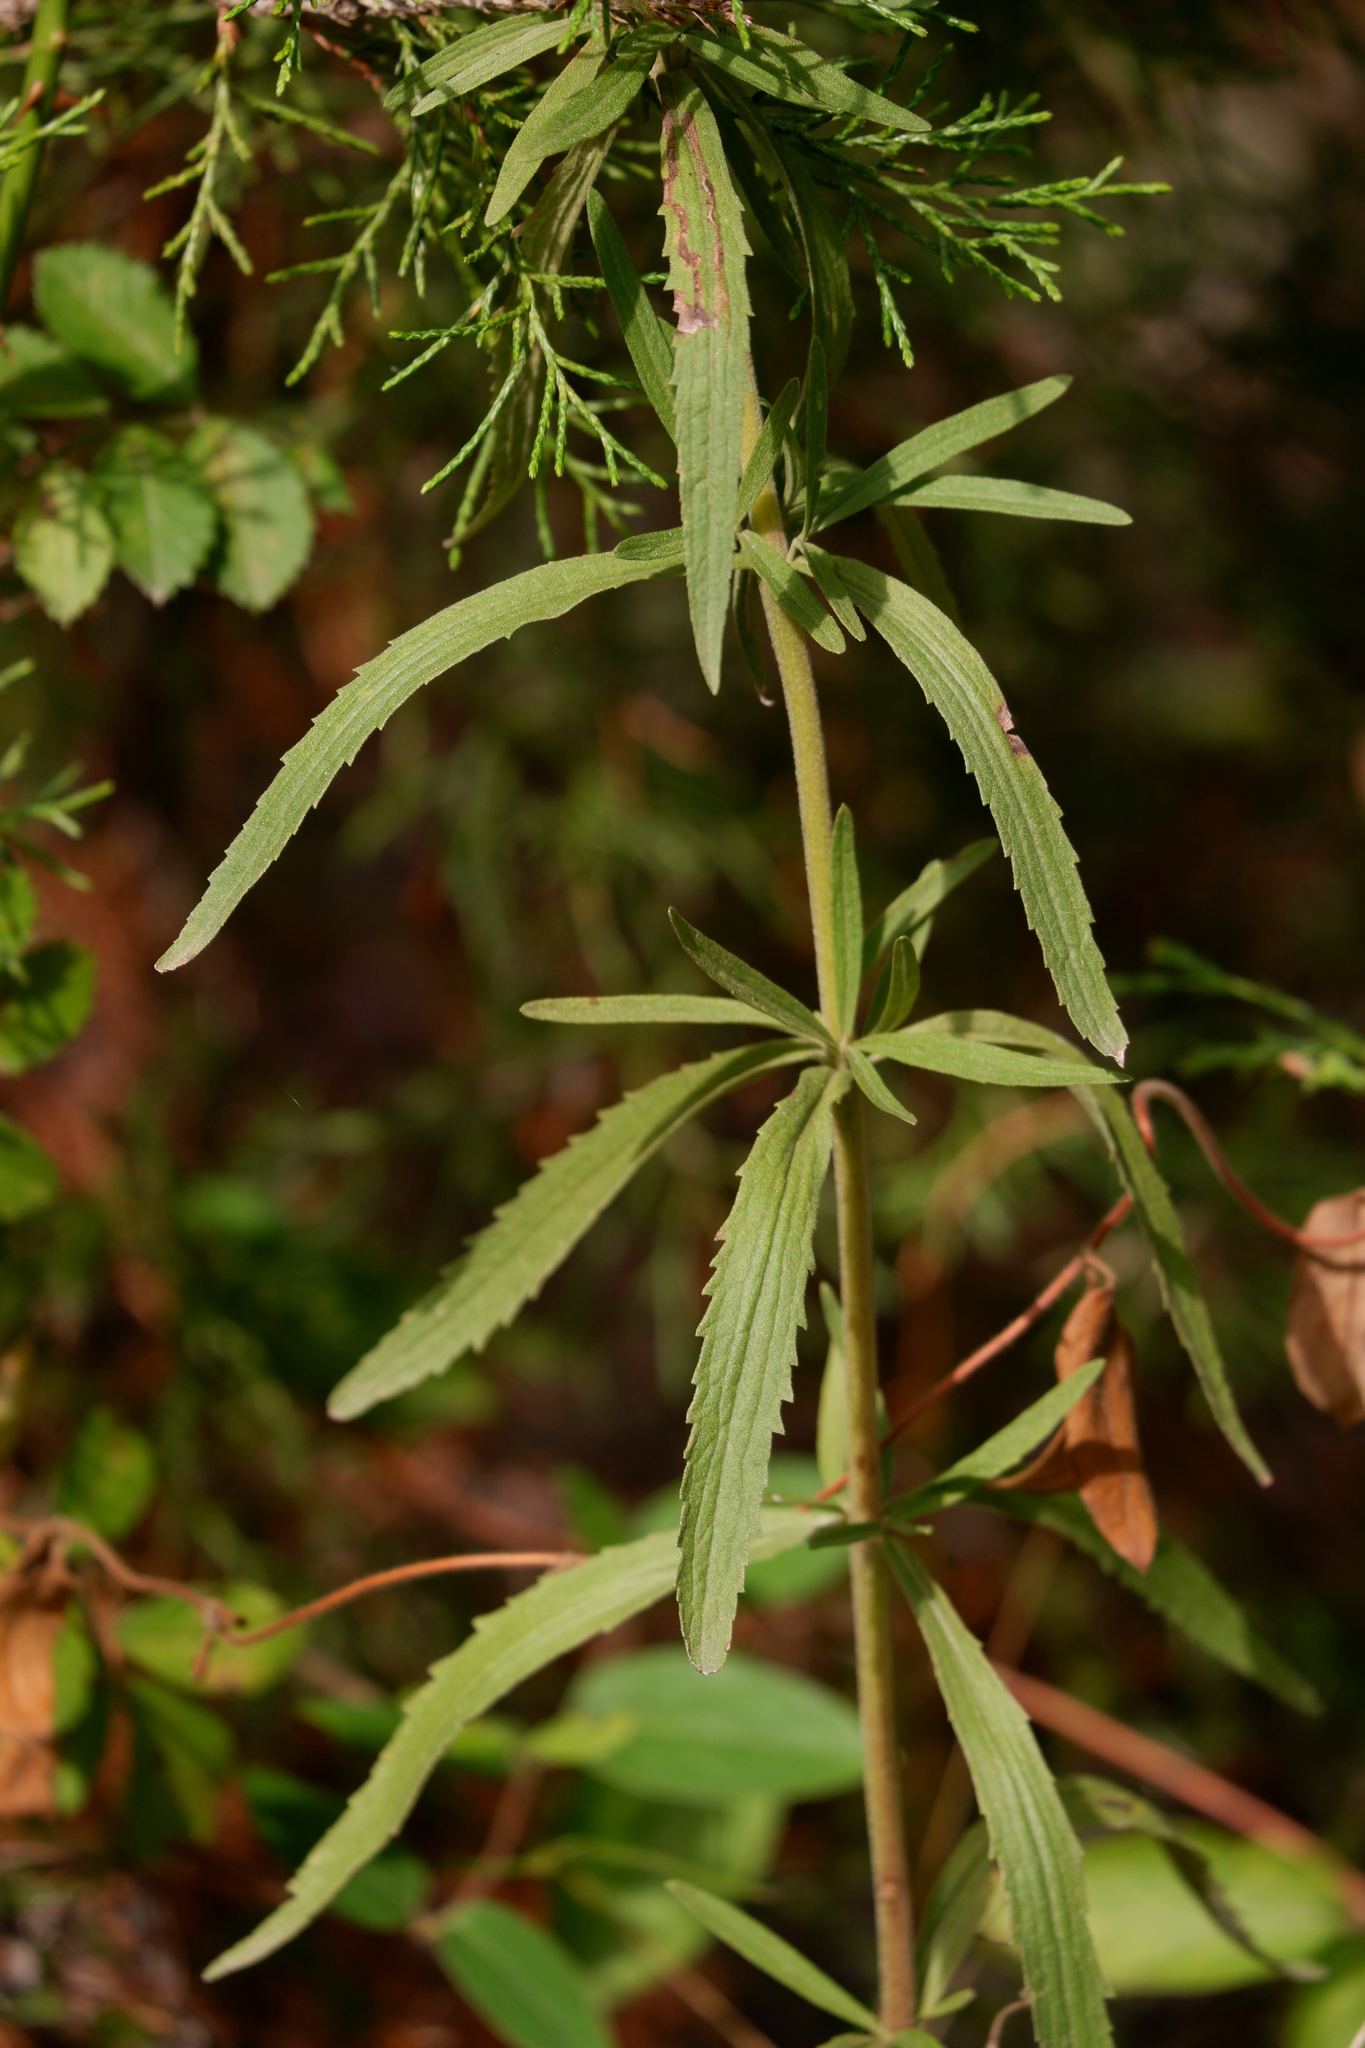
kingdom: Plantae
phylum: Tracheophyta
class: Magnoliopsida
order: Asterales
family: Asteraceae
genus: Eupatorium
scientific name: Eupatorium torreyanum
